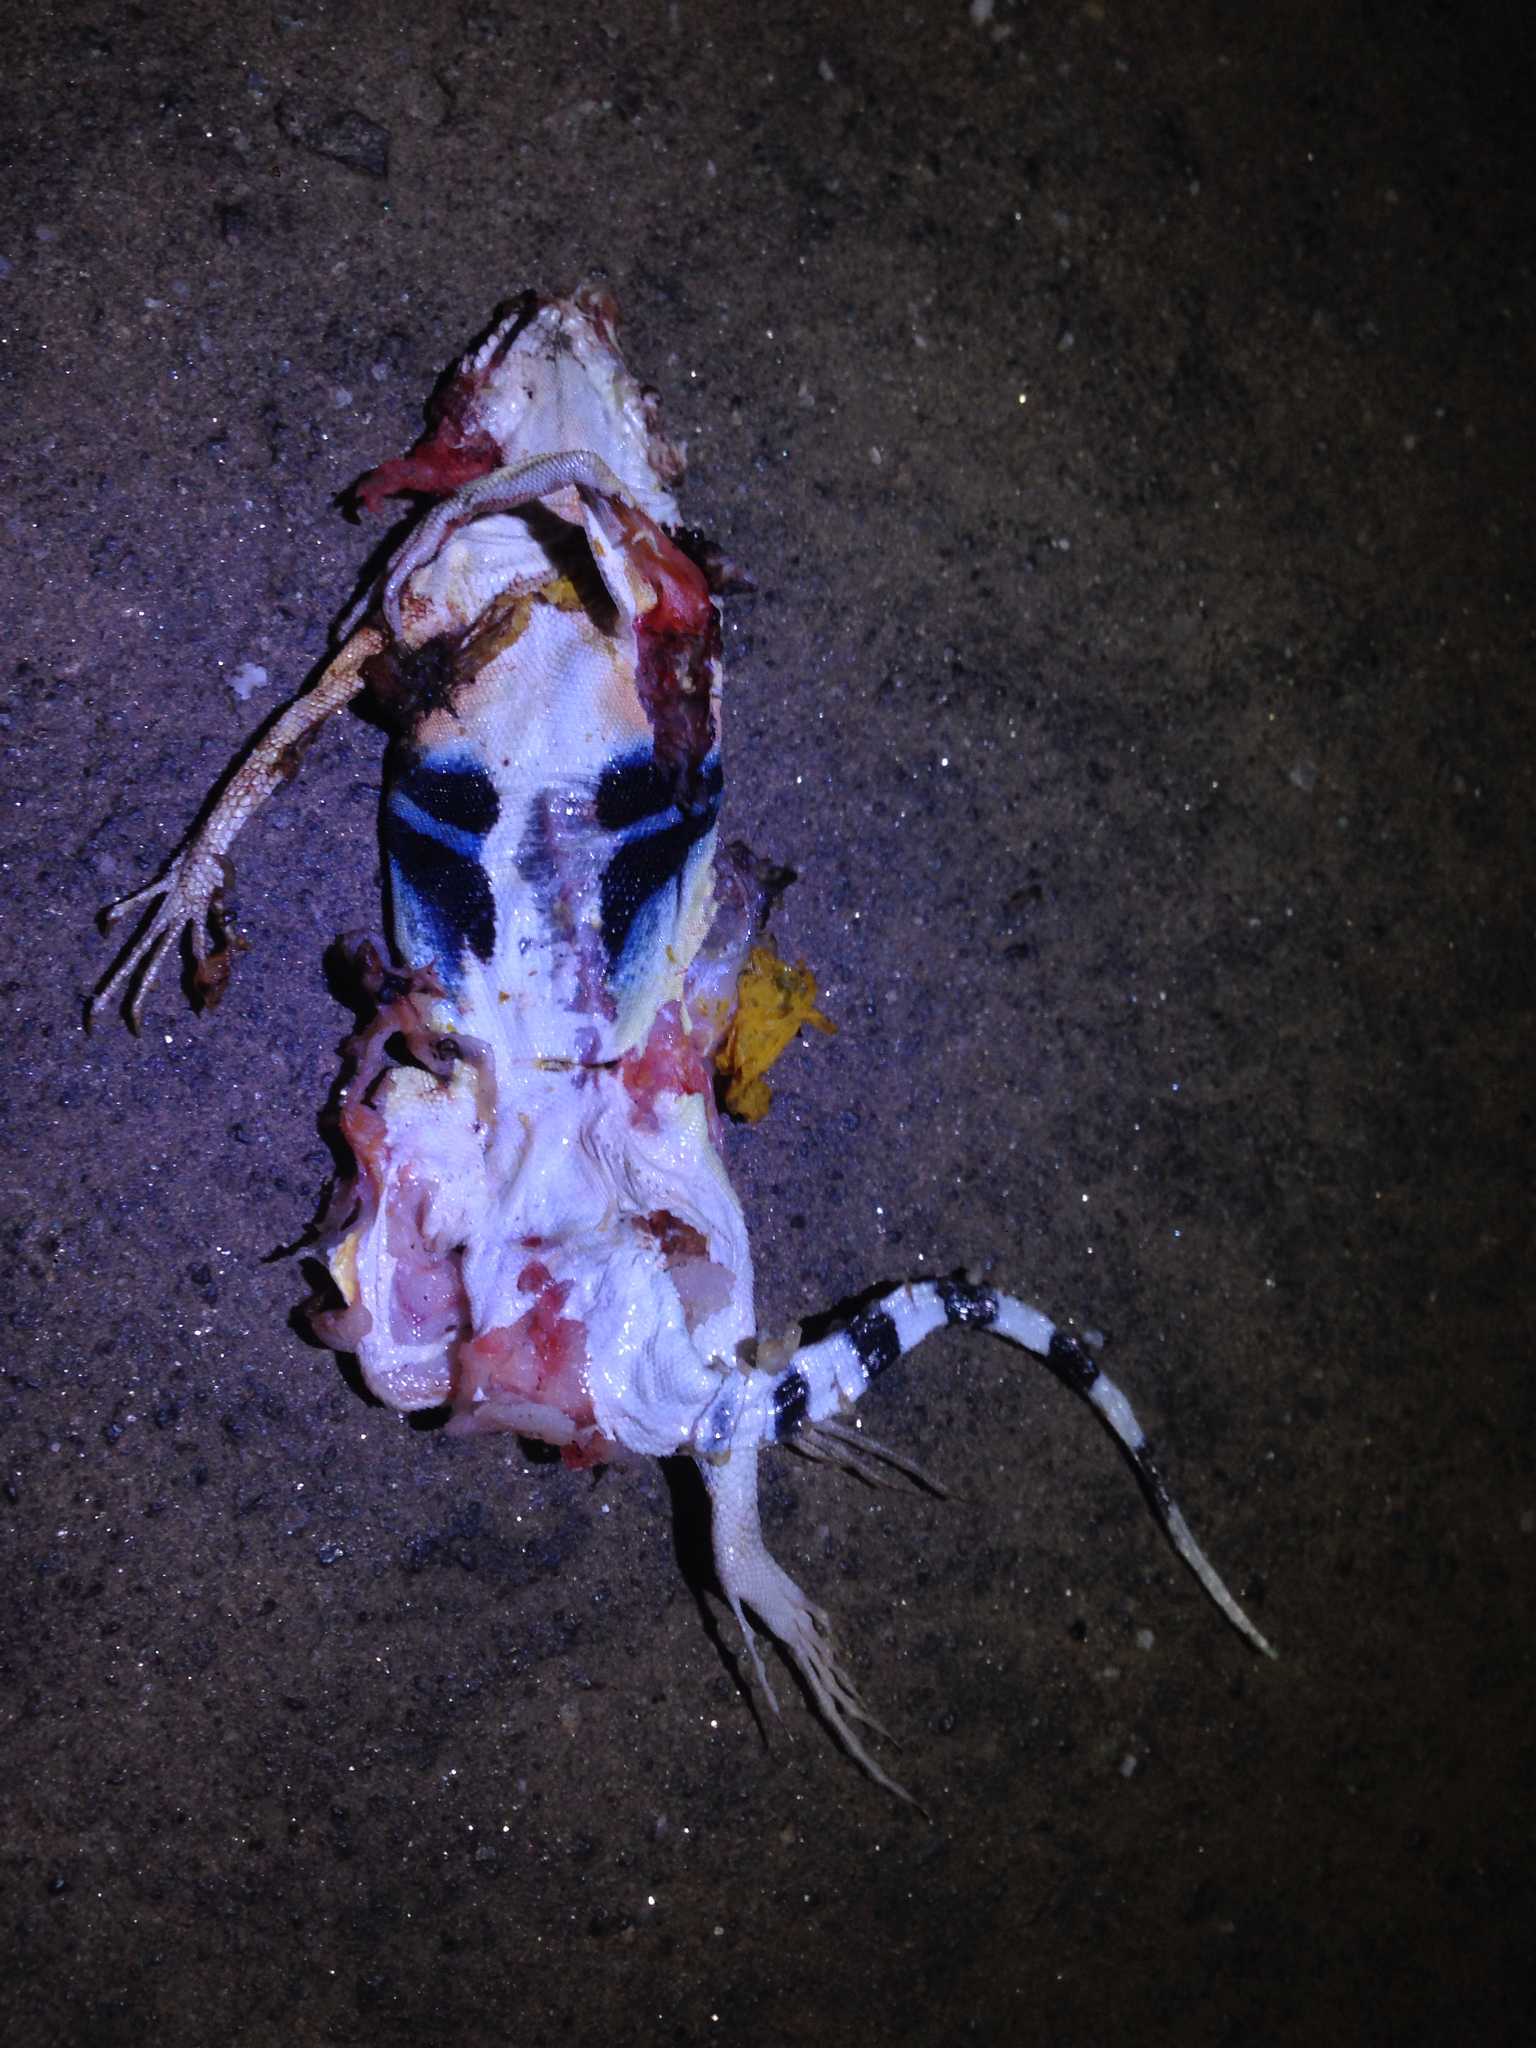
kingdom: Animalia
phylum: Chordata
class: Squamata
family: Phrynosomatidae
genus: Callisaurus
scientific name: Callisaurus draconoides
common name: Zebra-tailed lizard
